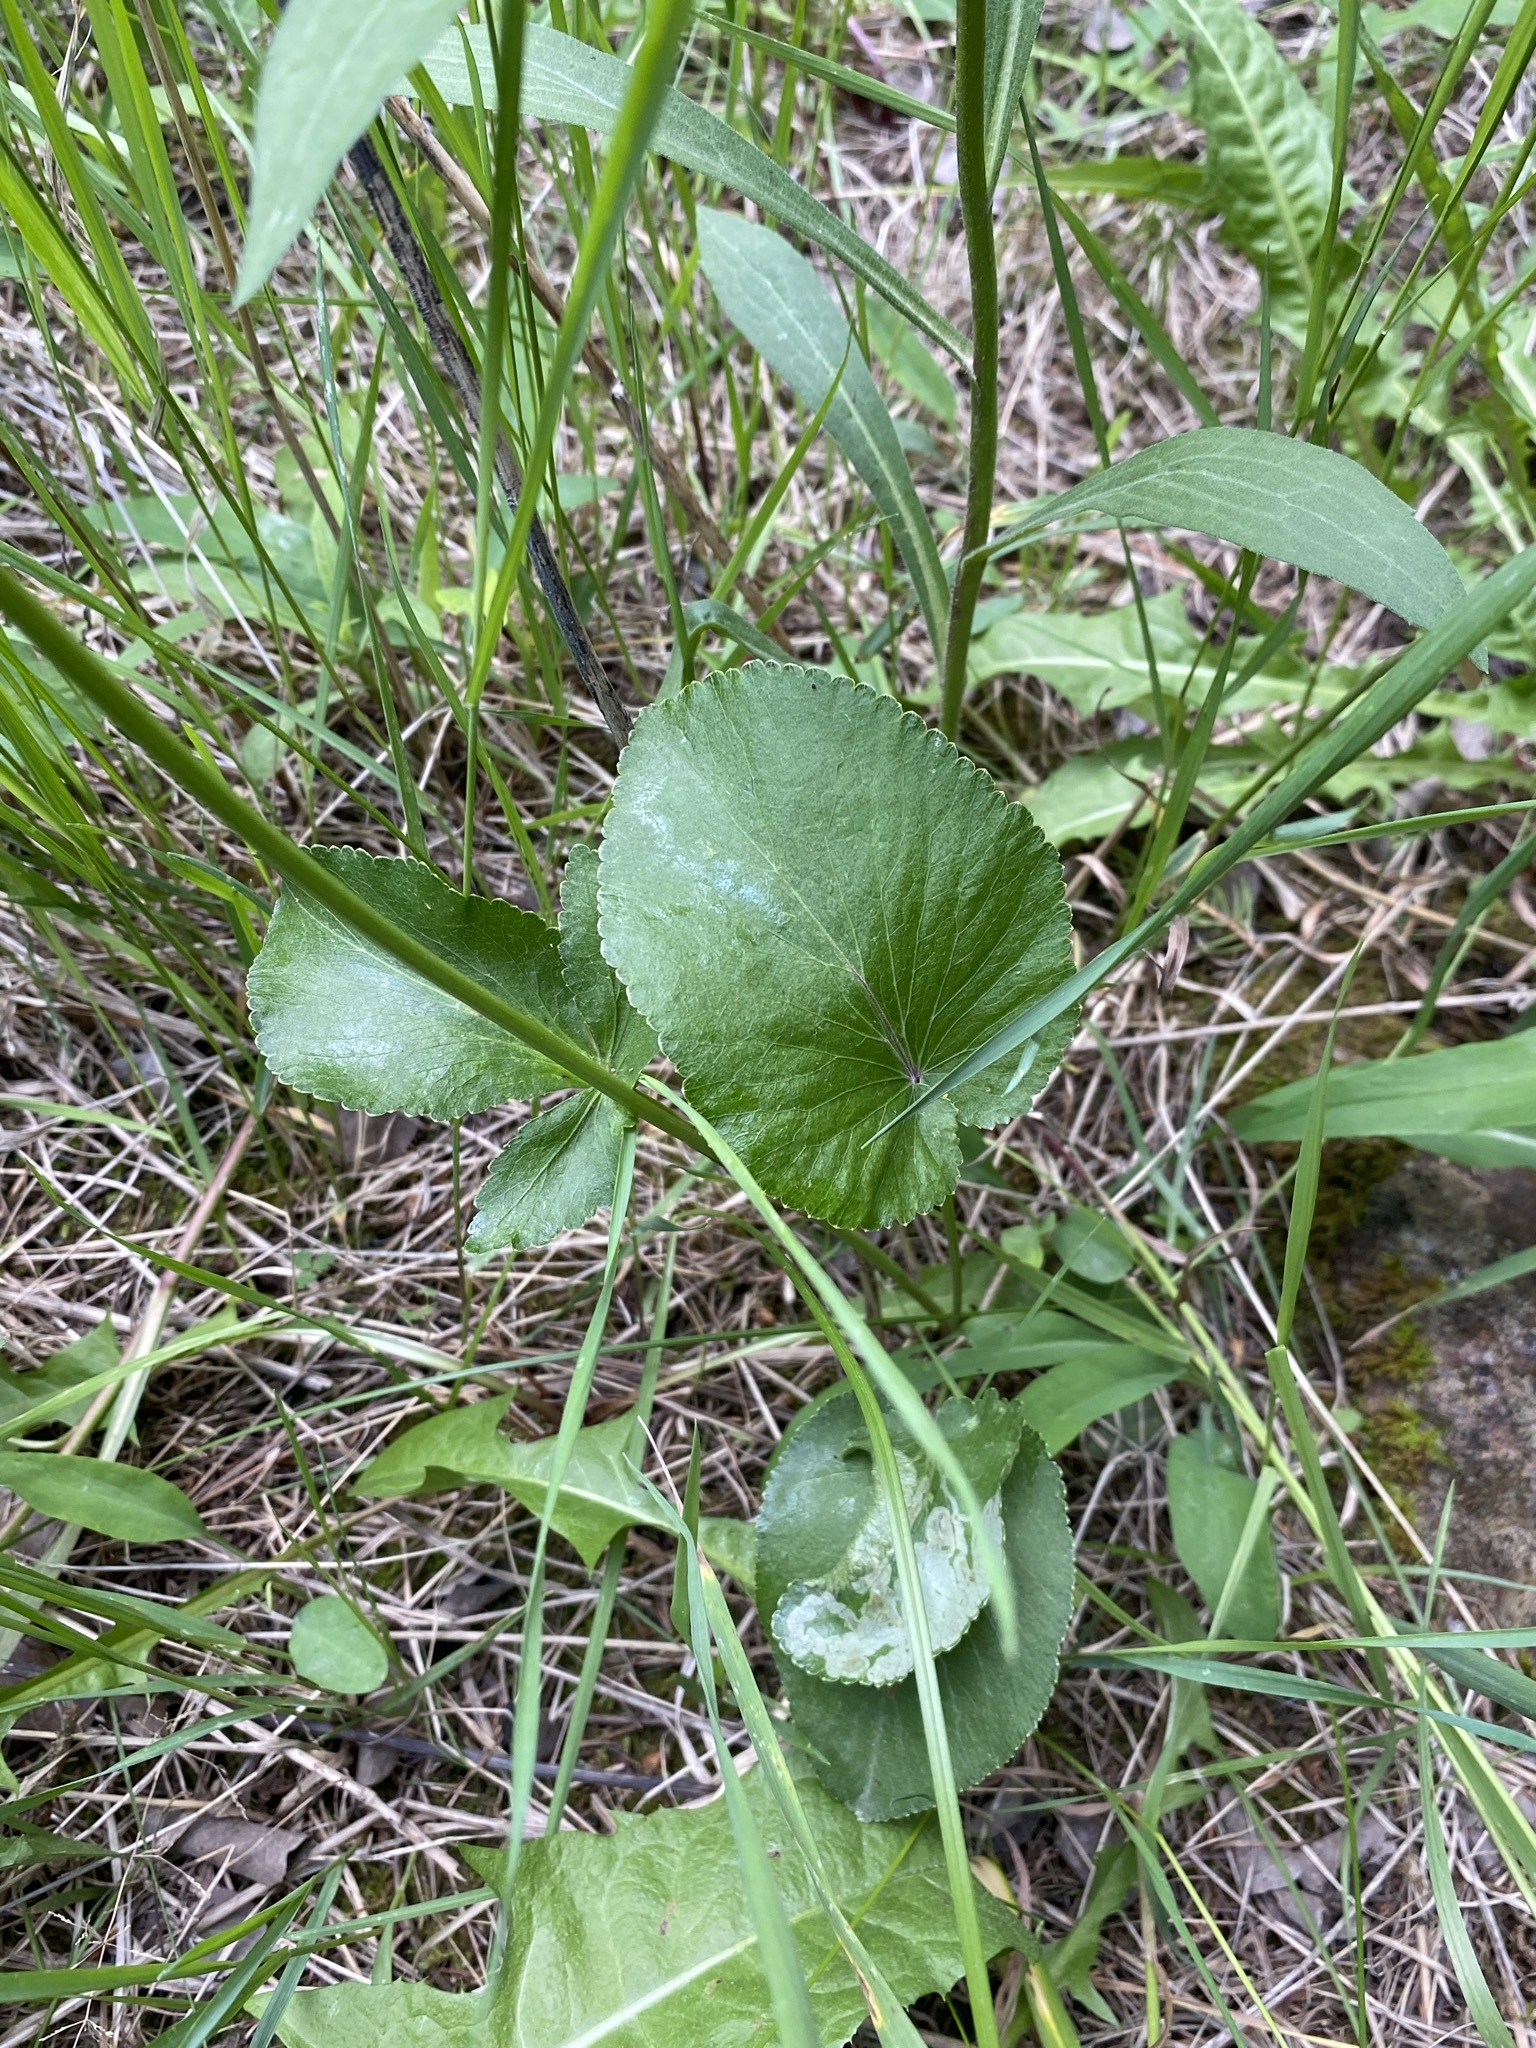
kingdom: Plantae
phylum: Tracheophyta
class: Magnoliopsida
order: Apiales
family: Apiaceae
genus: Zizia
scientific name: Zizia aptera
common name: Heart-leaved alexanders
